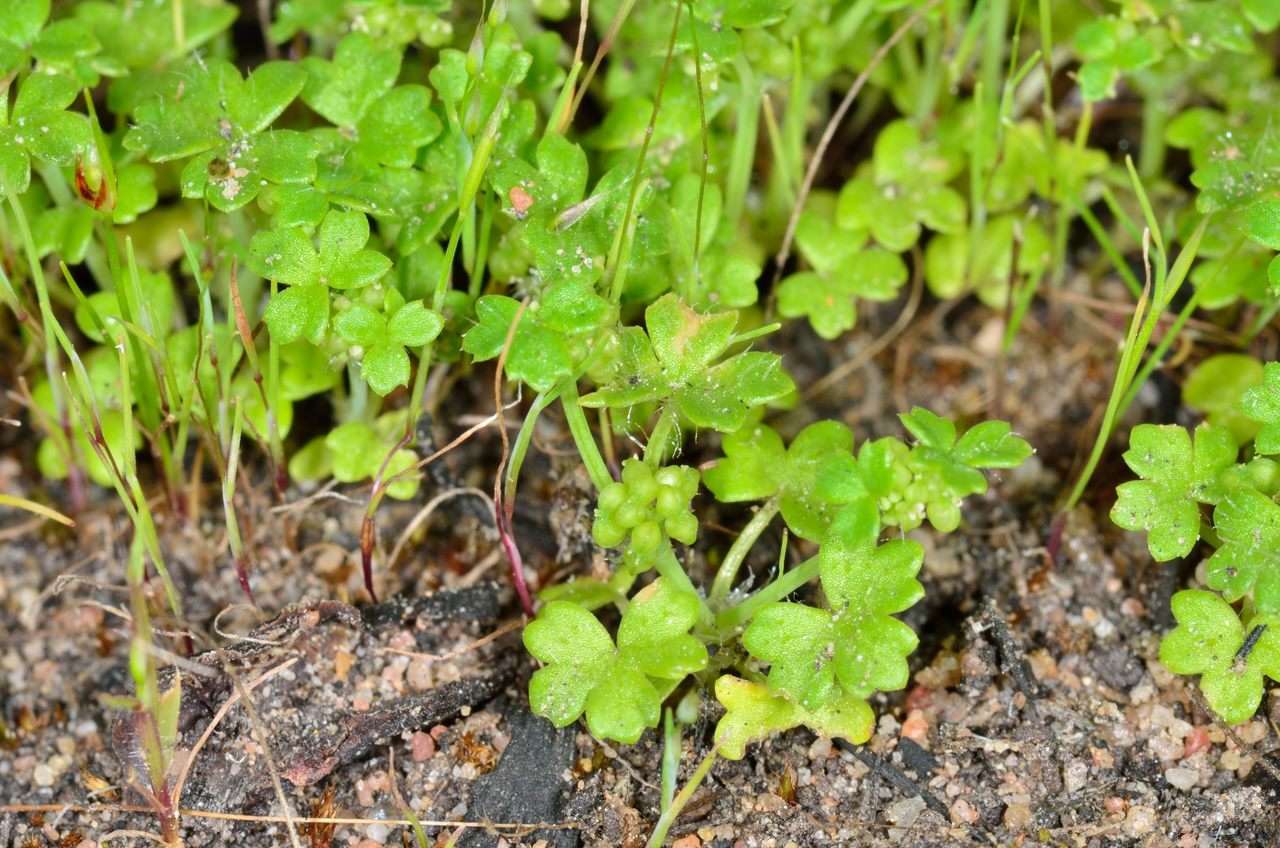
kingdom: Plantae
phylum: Tracheophyta
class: Magnoliopsida
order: Apiales
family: Araliaceae
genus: Hydrocotyle
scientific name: Hydrocotyle foveolata
